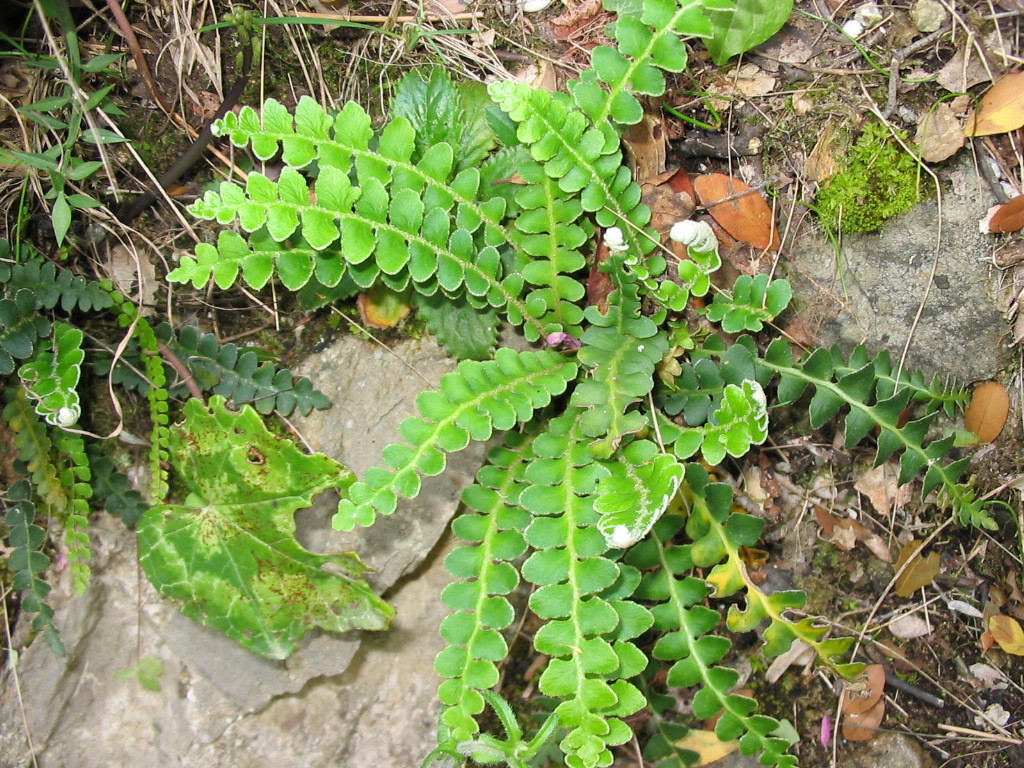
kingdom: Plantae
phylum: Tracheophyta
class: Polypodiopsida
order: Polypodiales
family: Aspleniaceae
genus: Asplenium
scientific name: Asplenium ceterach
